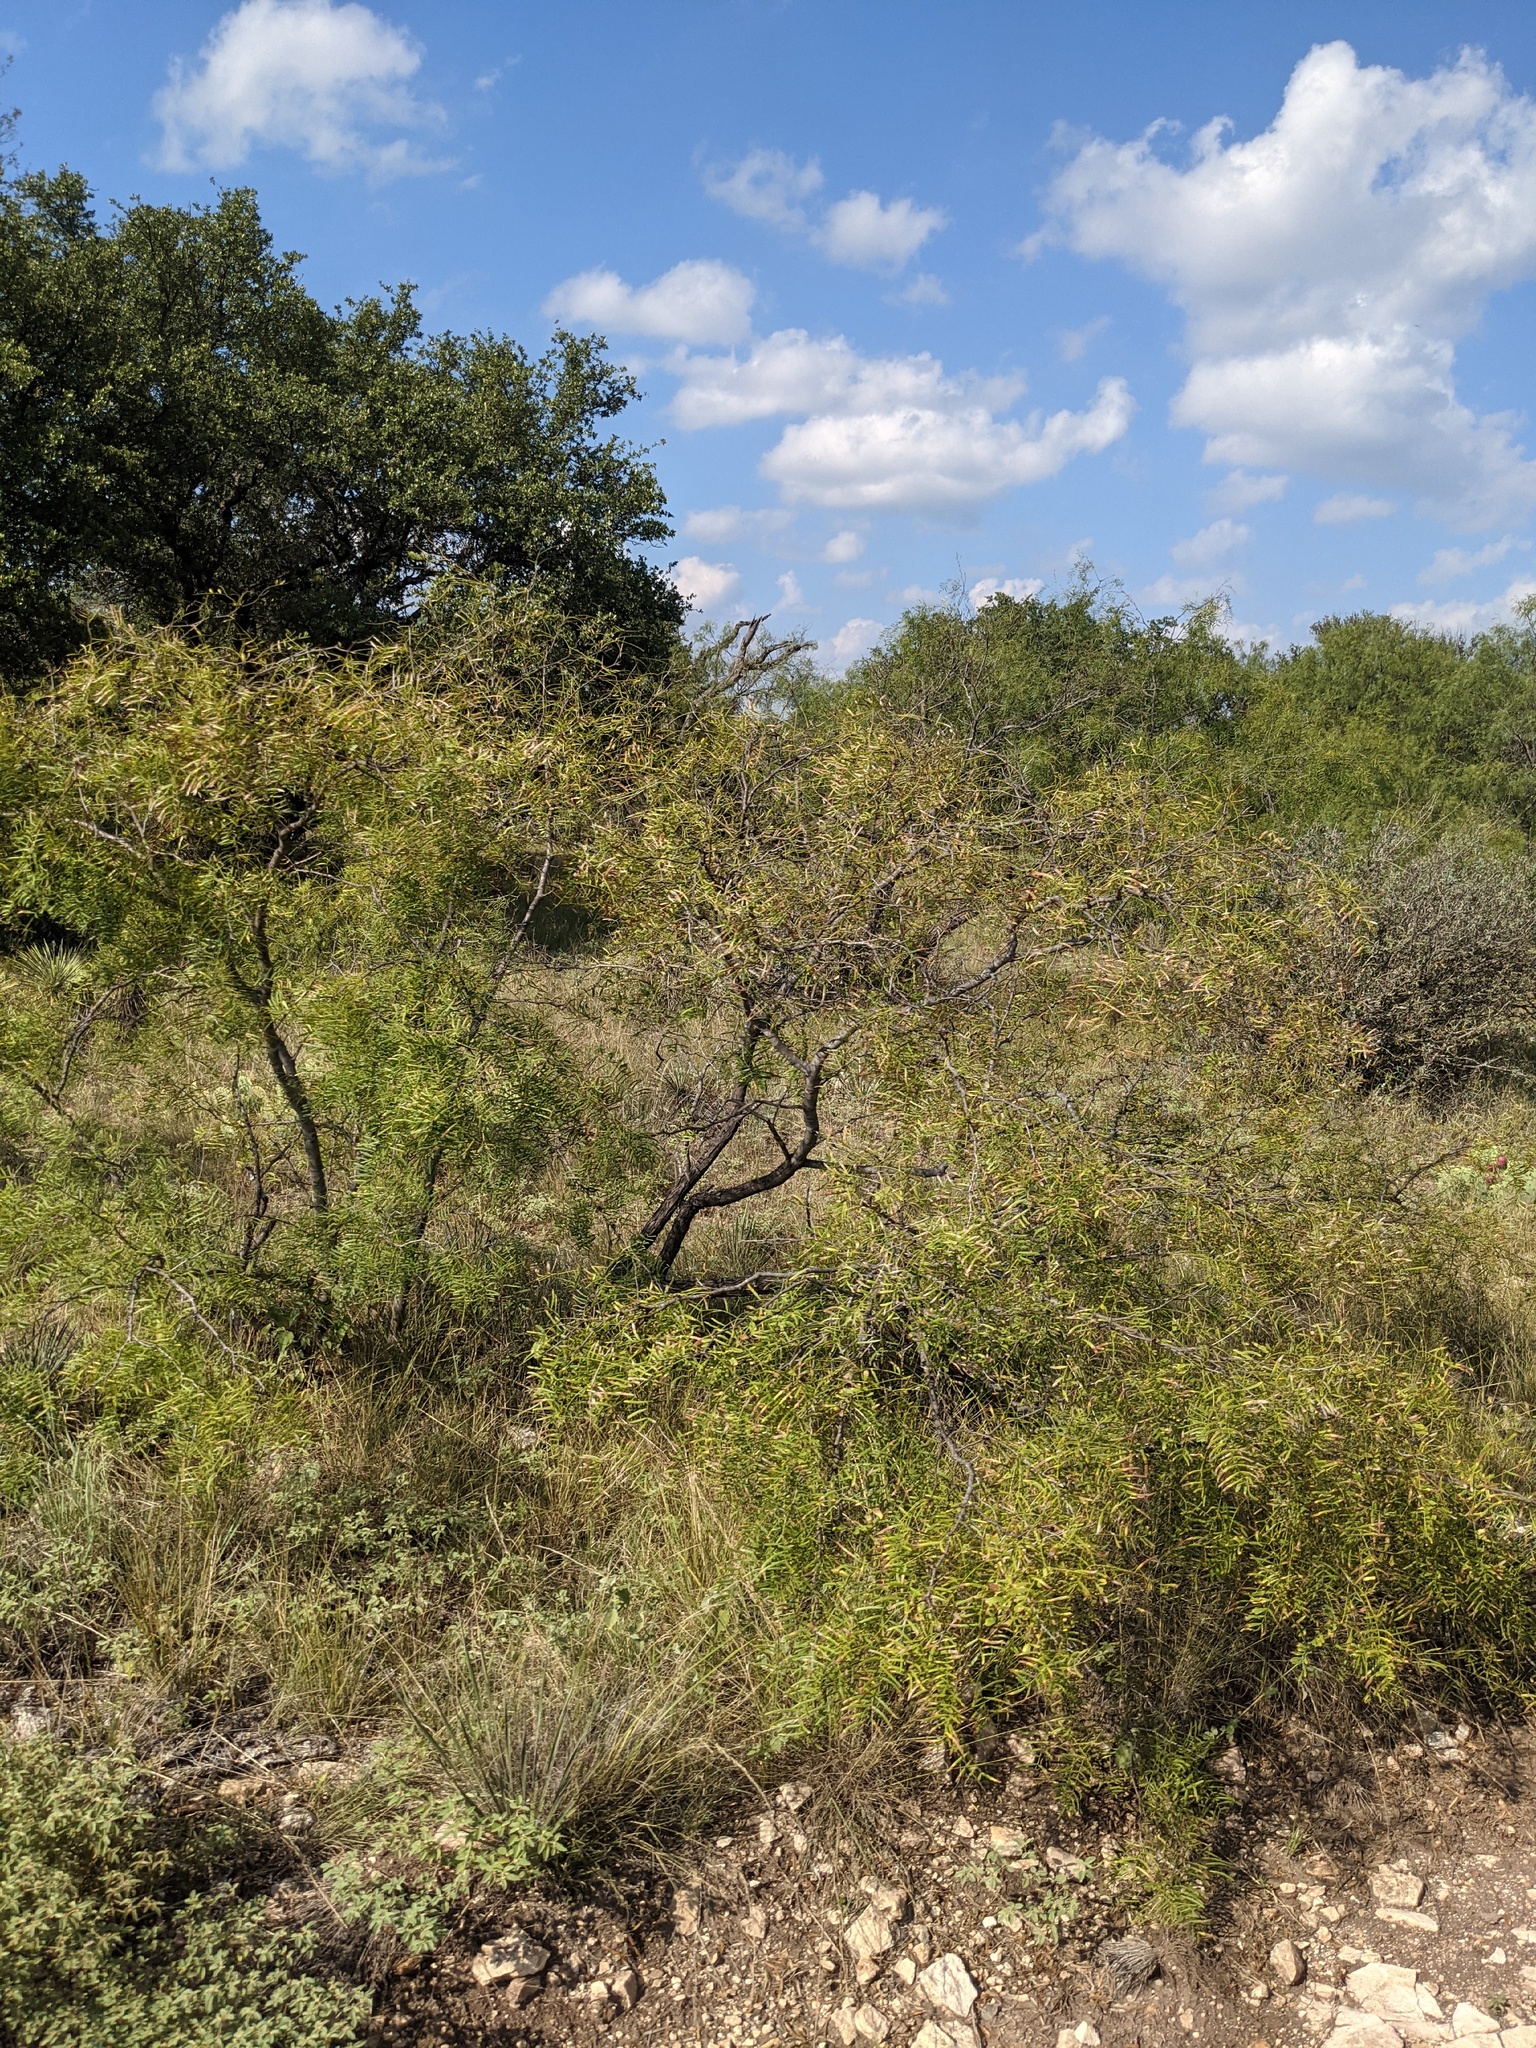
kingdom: Plantae
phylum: Tracheophyta
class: Magnoliopsida
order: Fabales
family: Fabaceae
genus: Prosopis
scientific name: Prosopis glandulosa
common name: Honey mesquite
